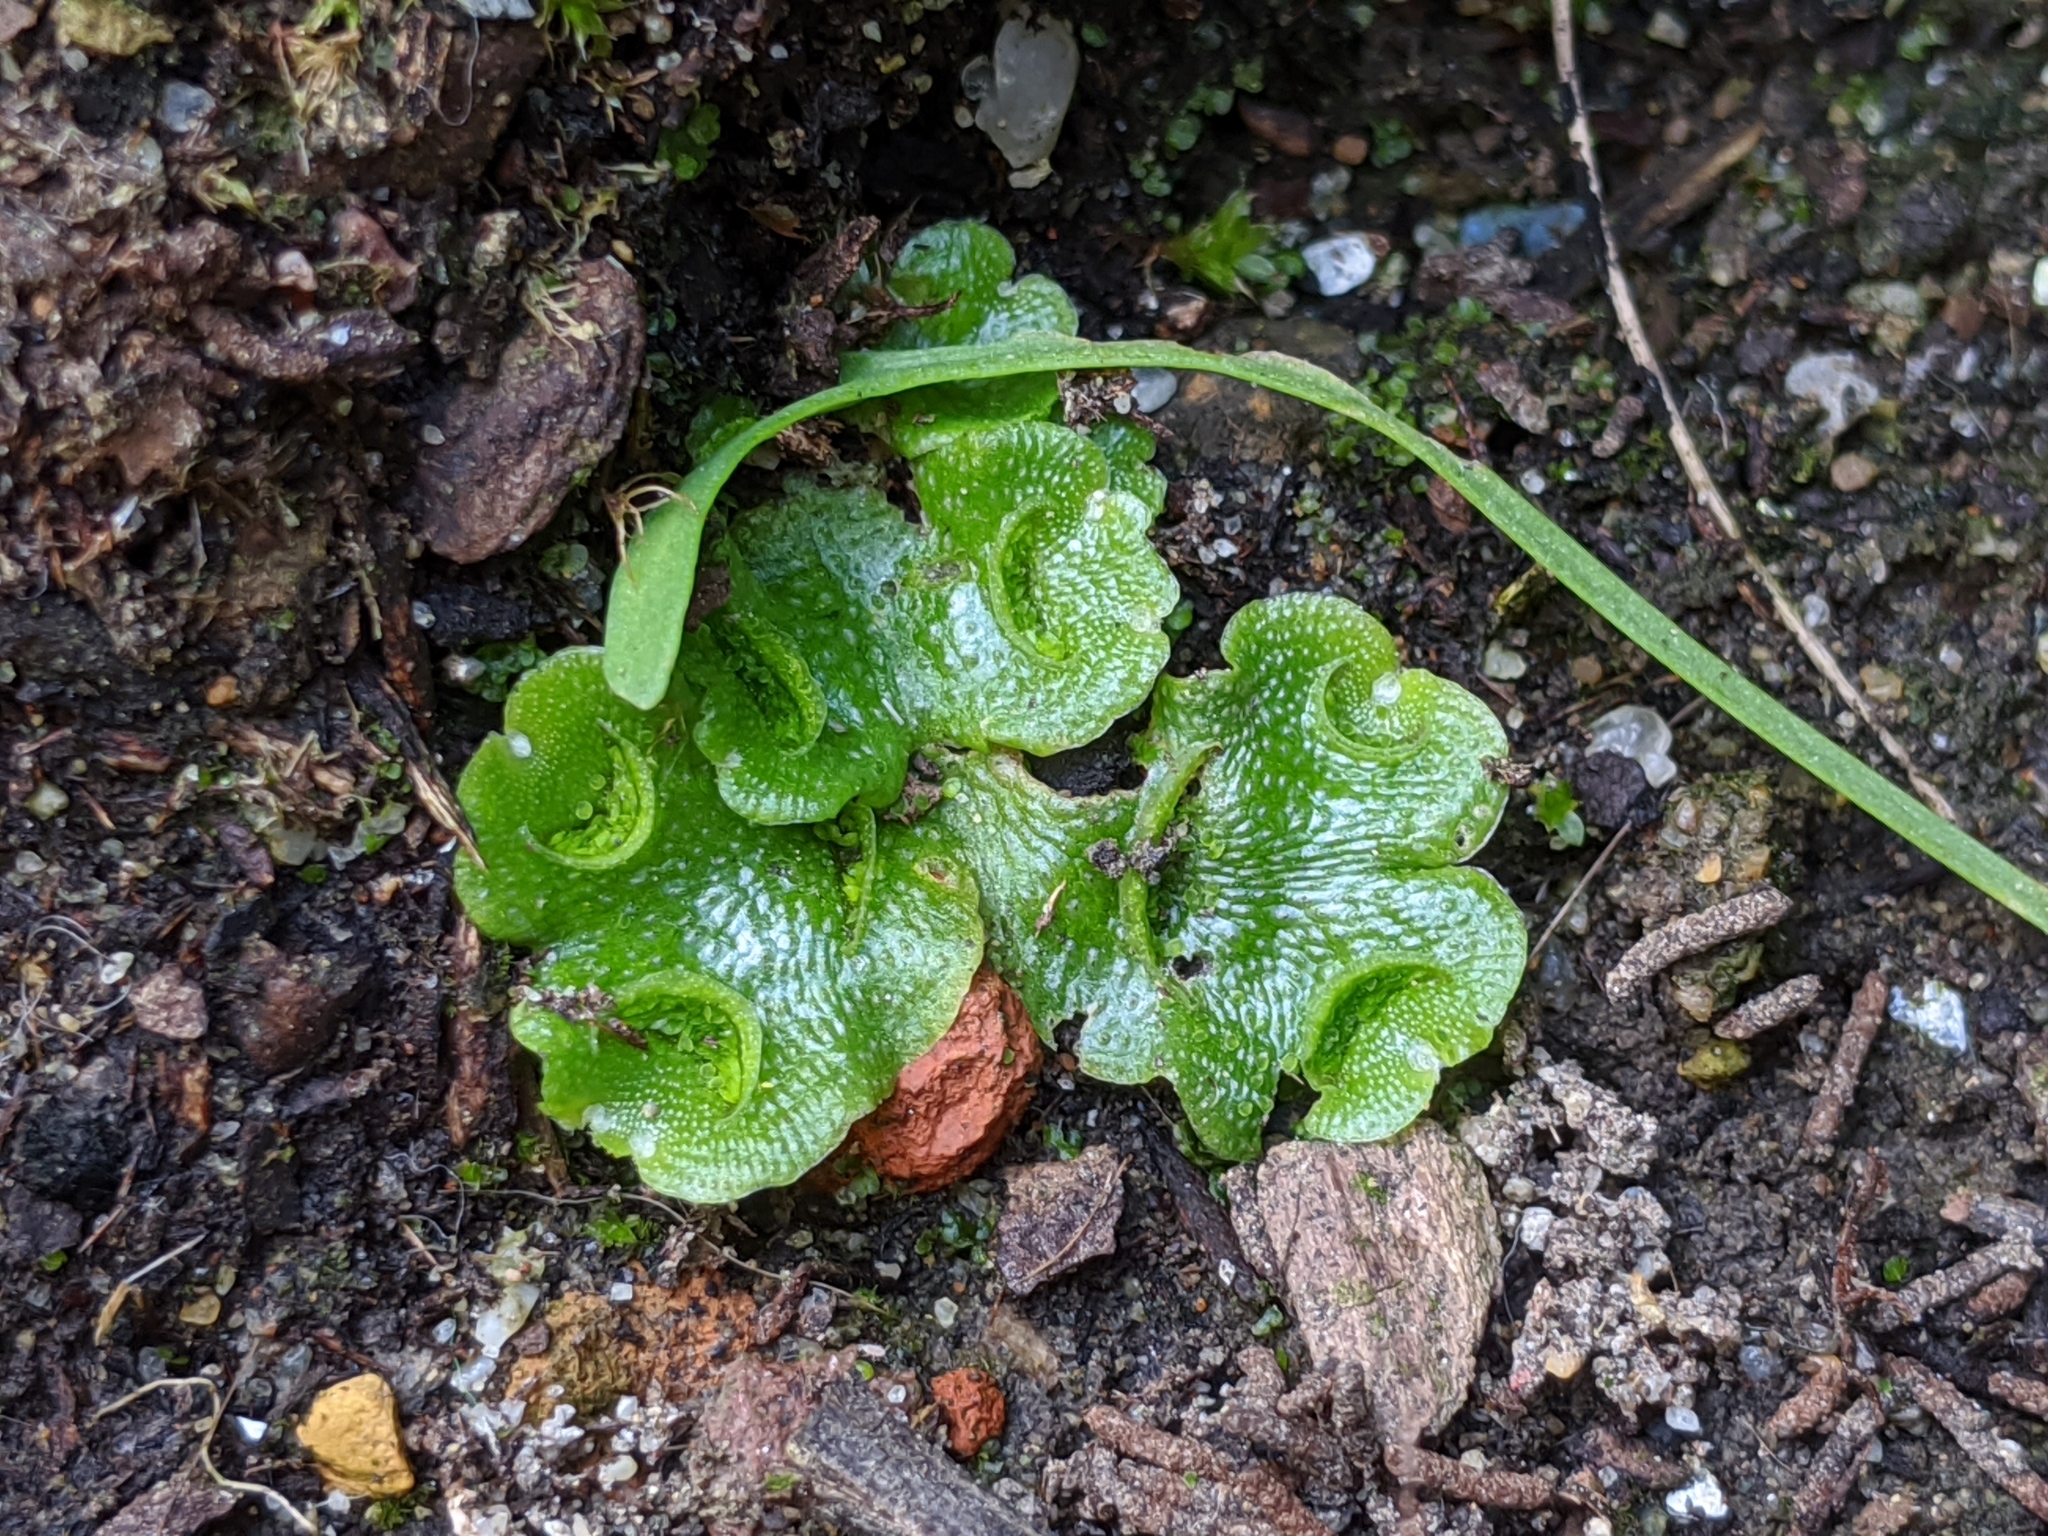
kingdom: Plantae
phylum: Marchantiophyta
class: Marchantiopsida
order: Lunulariales
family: Lunulariaceae
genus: Lunularia
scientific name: Lunularia cruciata
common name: Crescent-cup liverwort
